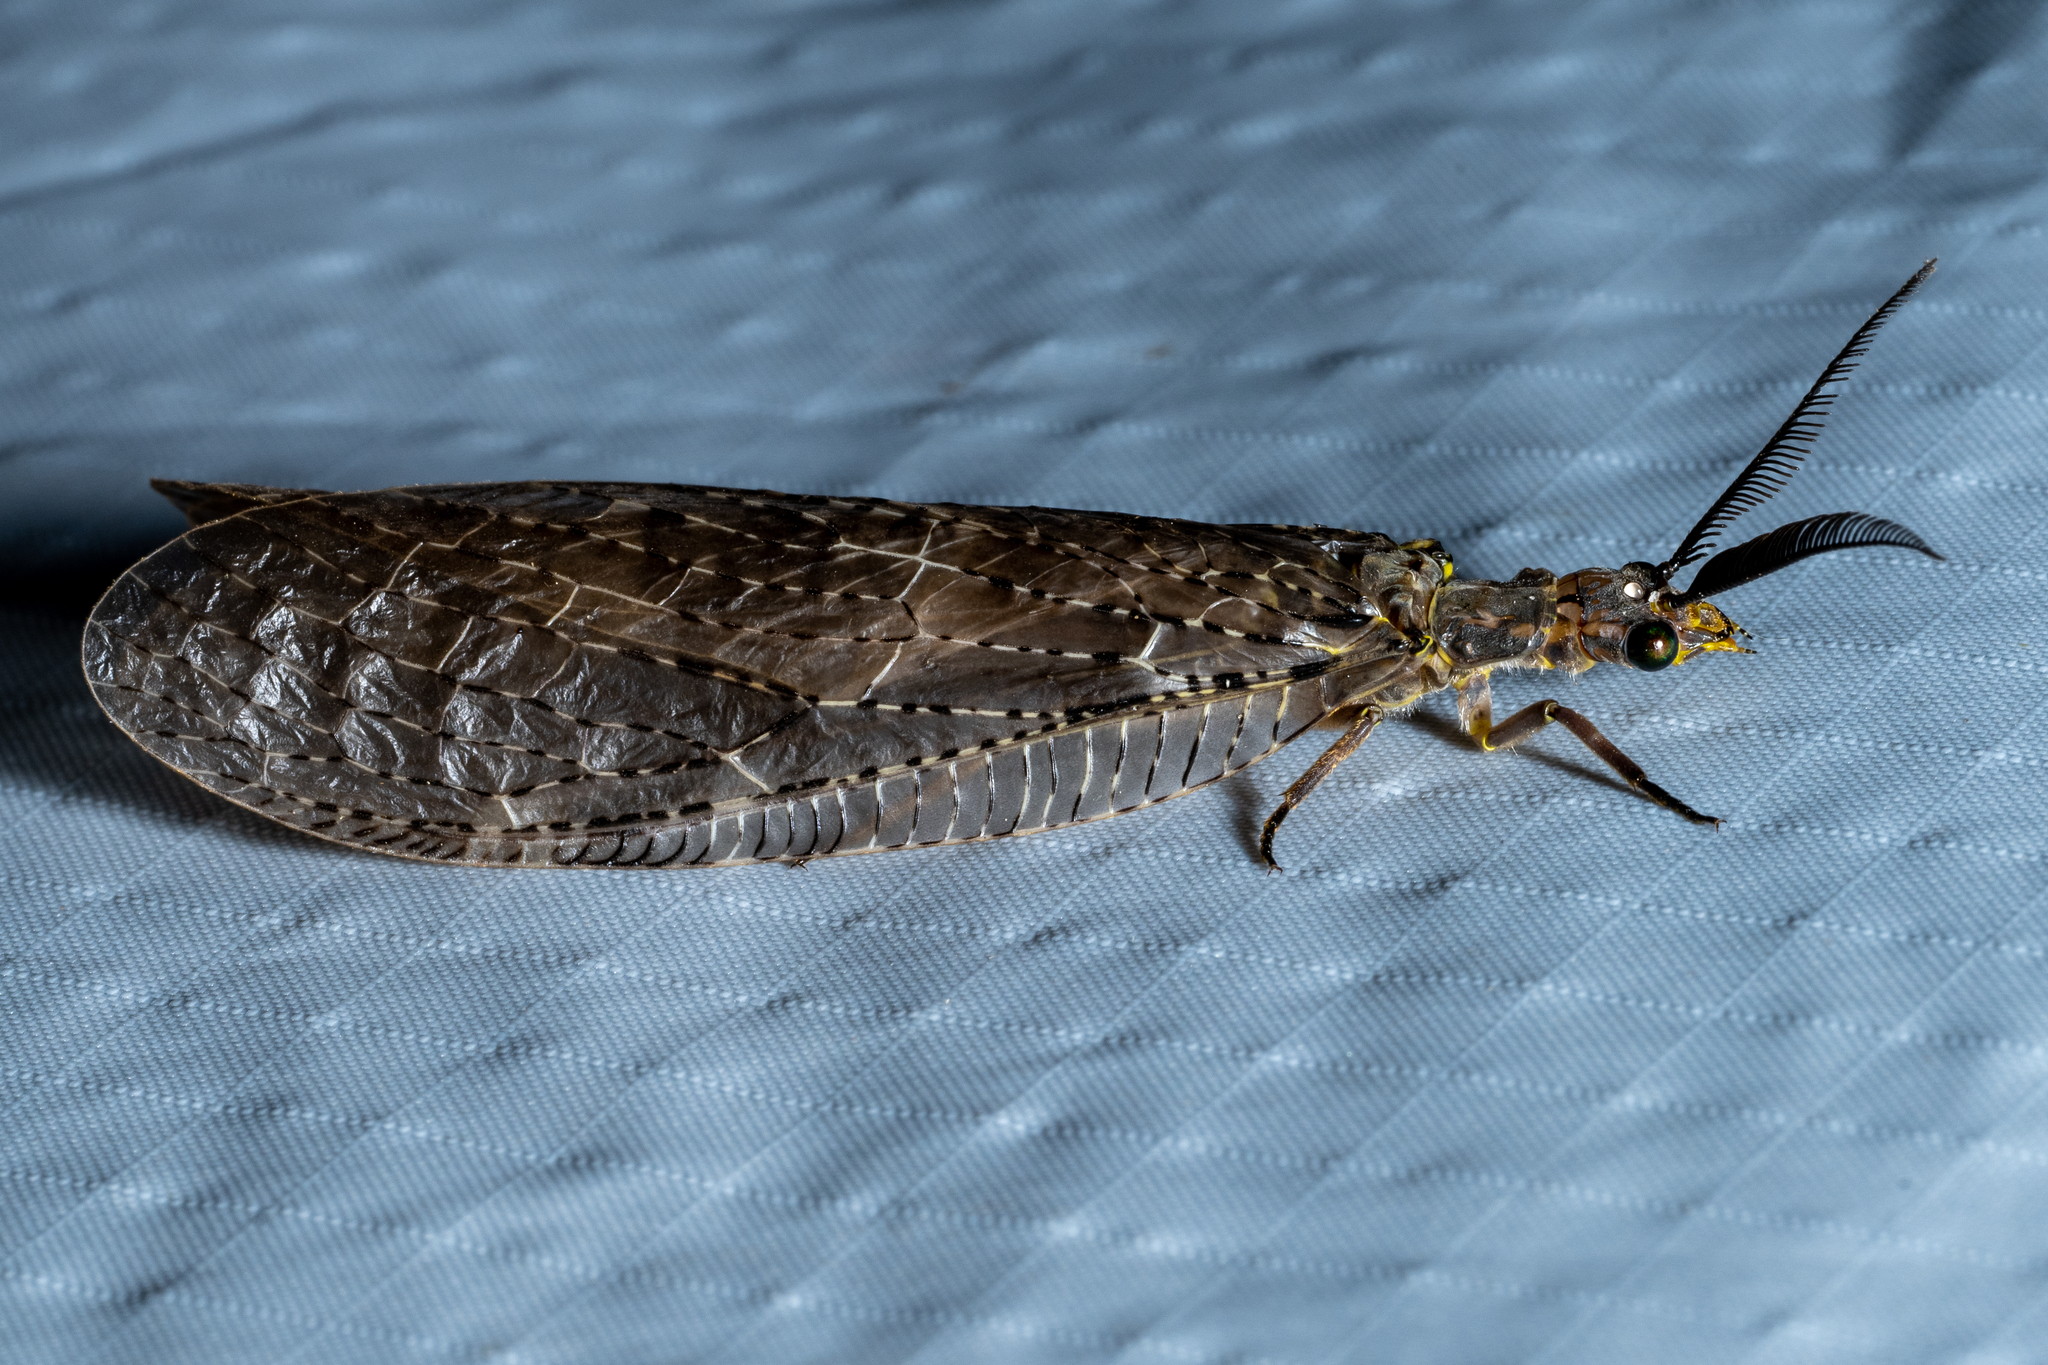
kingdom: Animalia
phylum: Arthropoda
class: Insecta
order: Megaloptera
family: Corydalidae
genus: Chauliodes
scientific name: Chauliodes pectinicornis
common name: Summer fishfly
